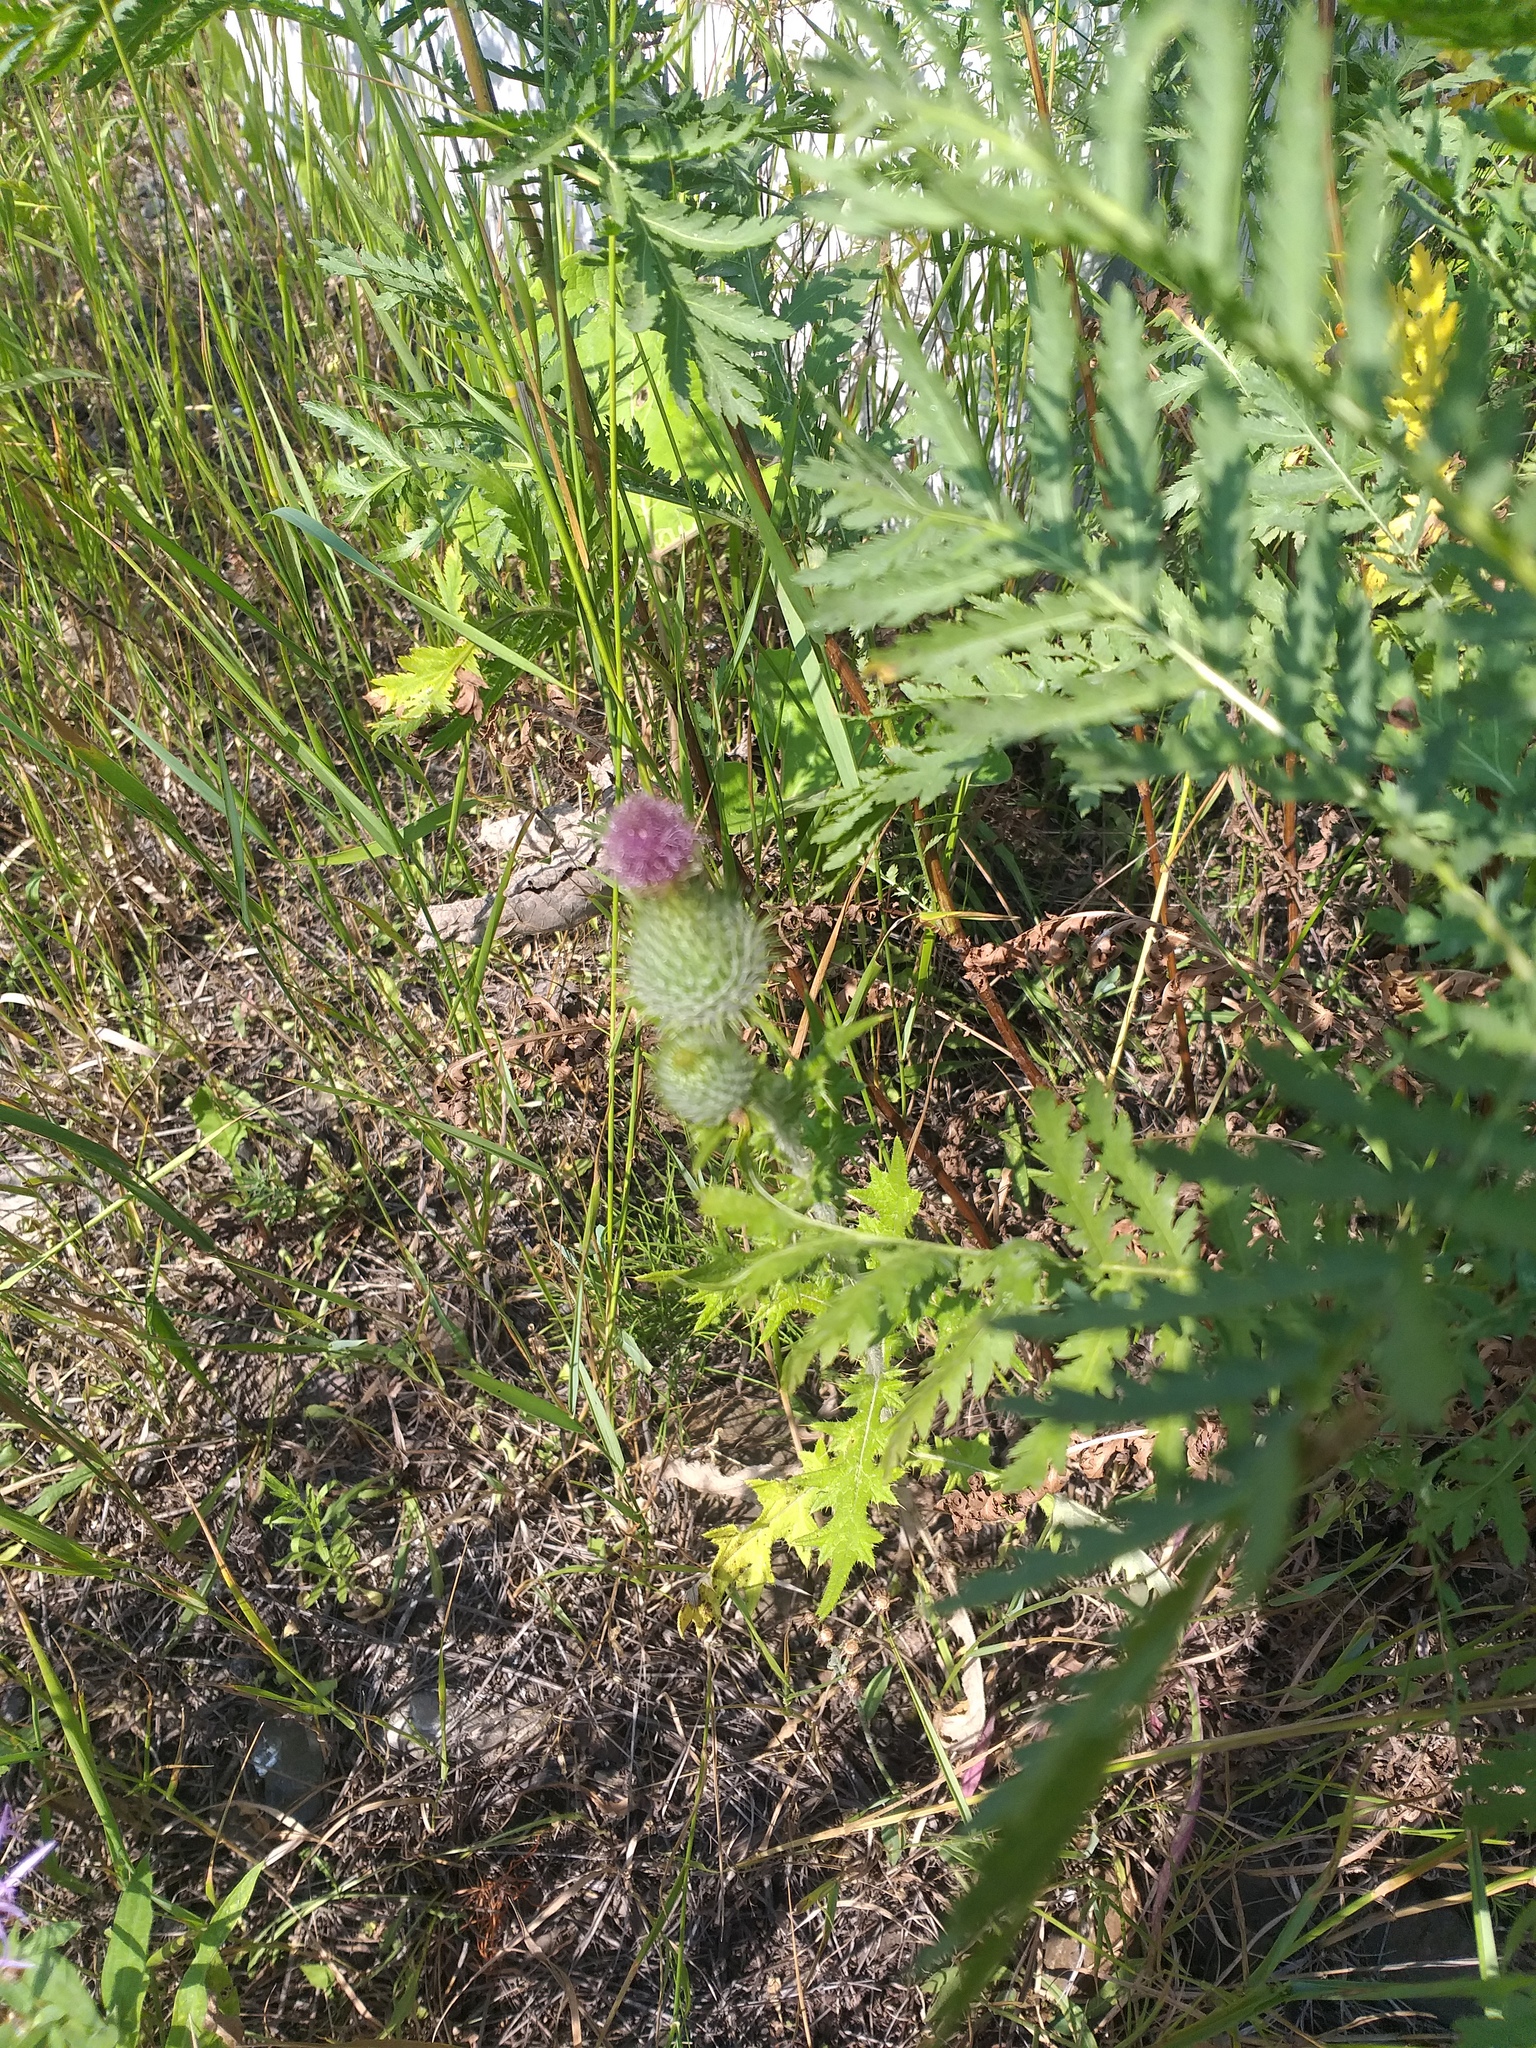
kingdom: Plantae
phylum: Tracheophyta
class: Magnoliopsida
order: Asterales
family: Asteraceae
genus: Cirsium
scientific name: Cirsium vulgare
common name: Bull thistle
